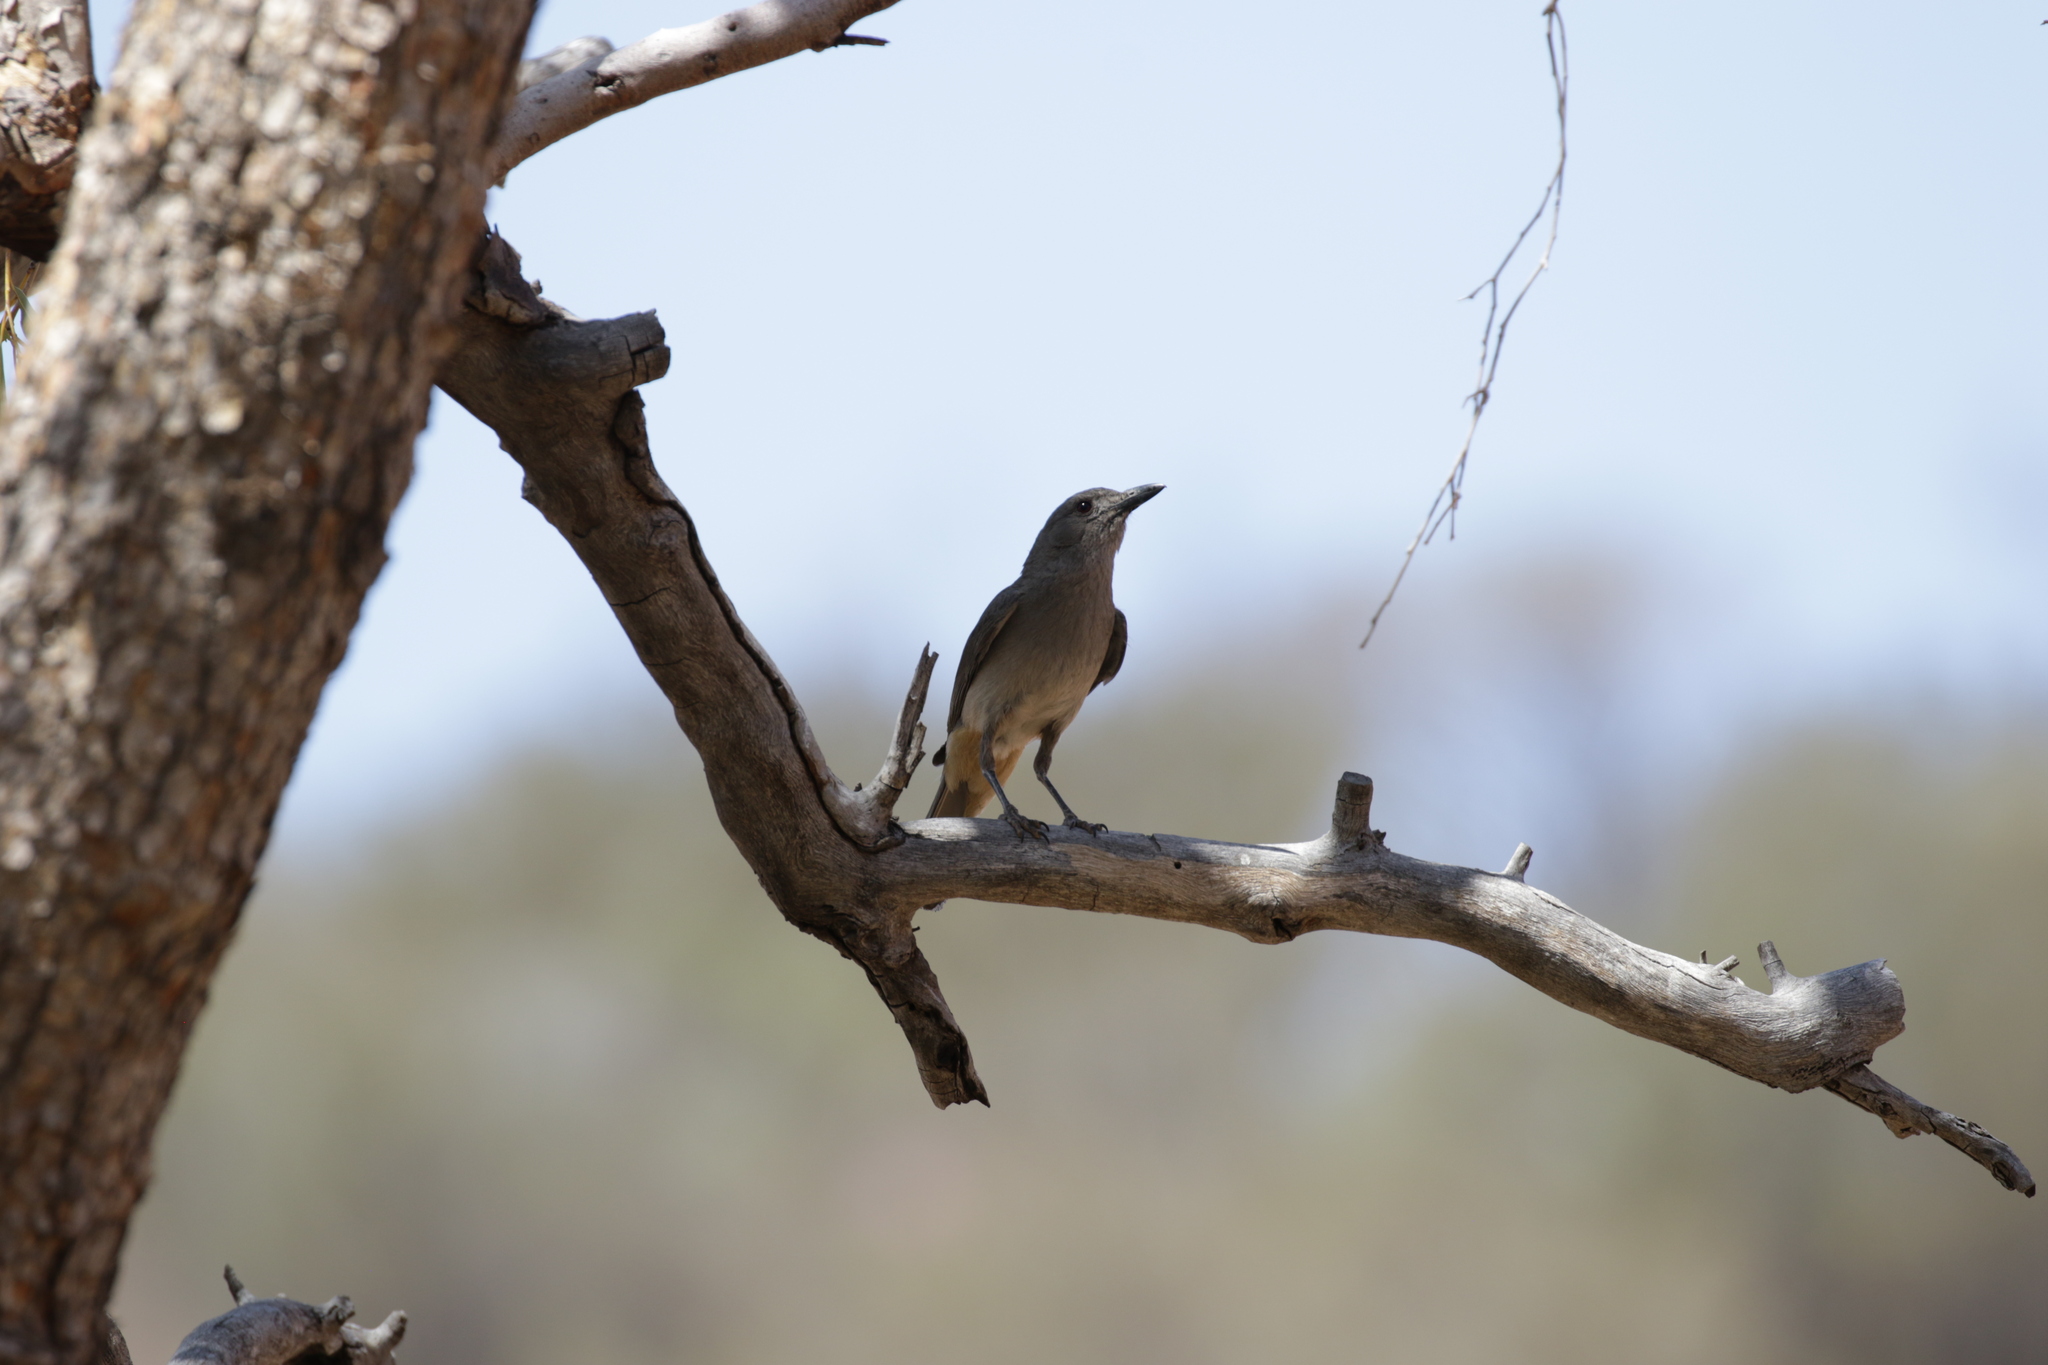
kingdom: Animalia
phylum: Chordata
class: Aves
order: Passeriformes
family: Pachycephalidae
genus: Colluricincla
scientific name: Colluricincla harmonica
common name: Grey shrikethrush
